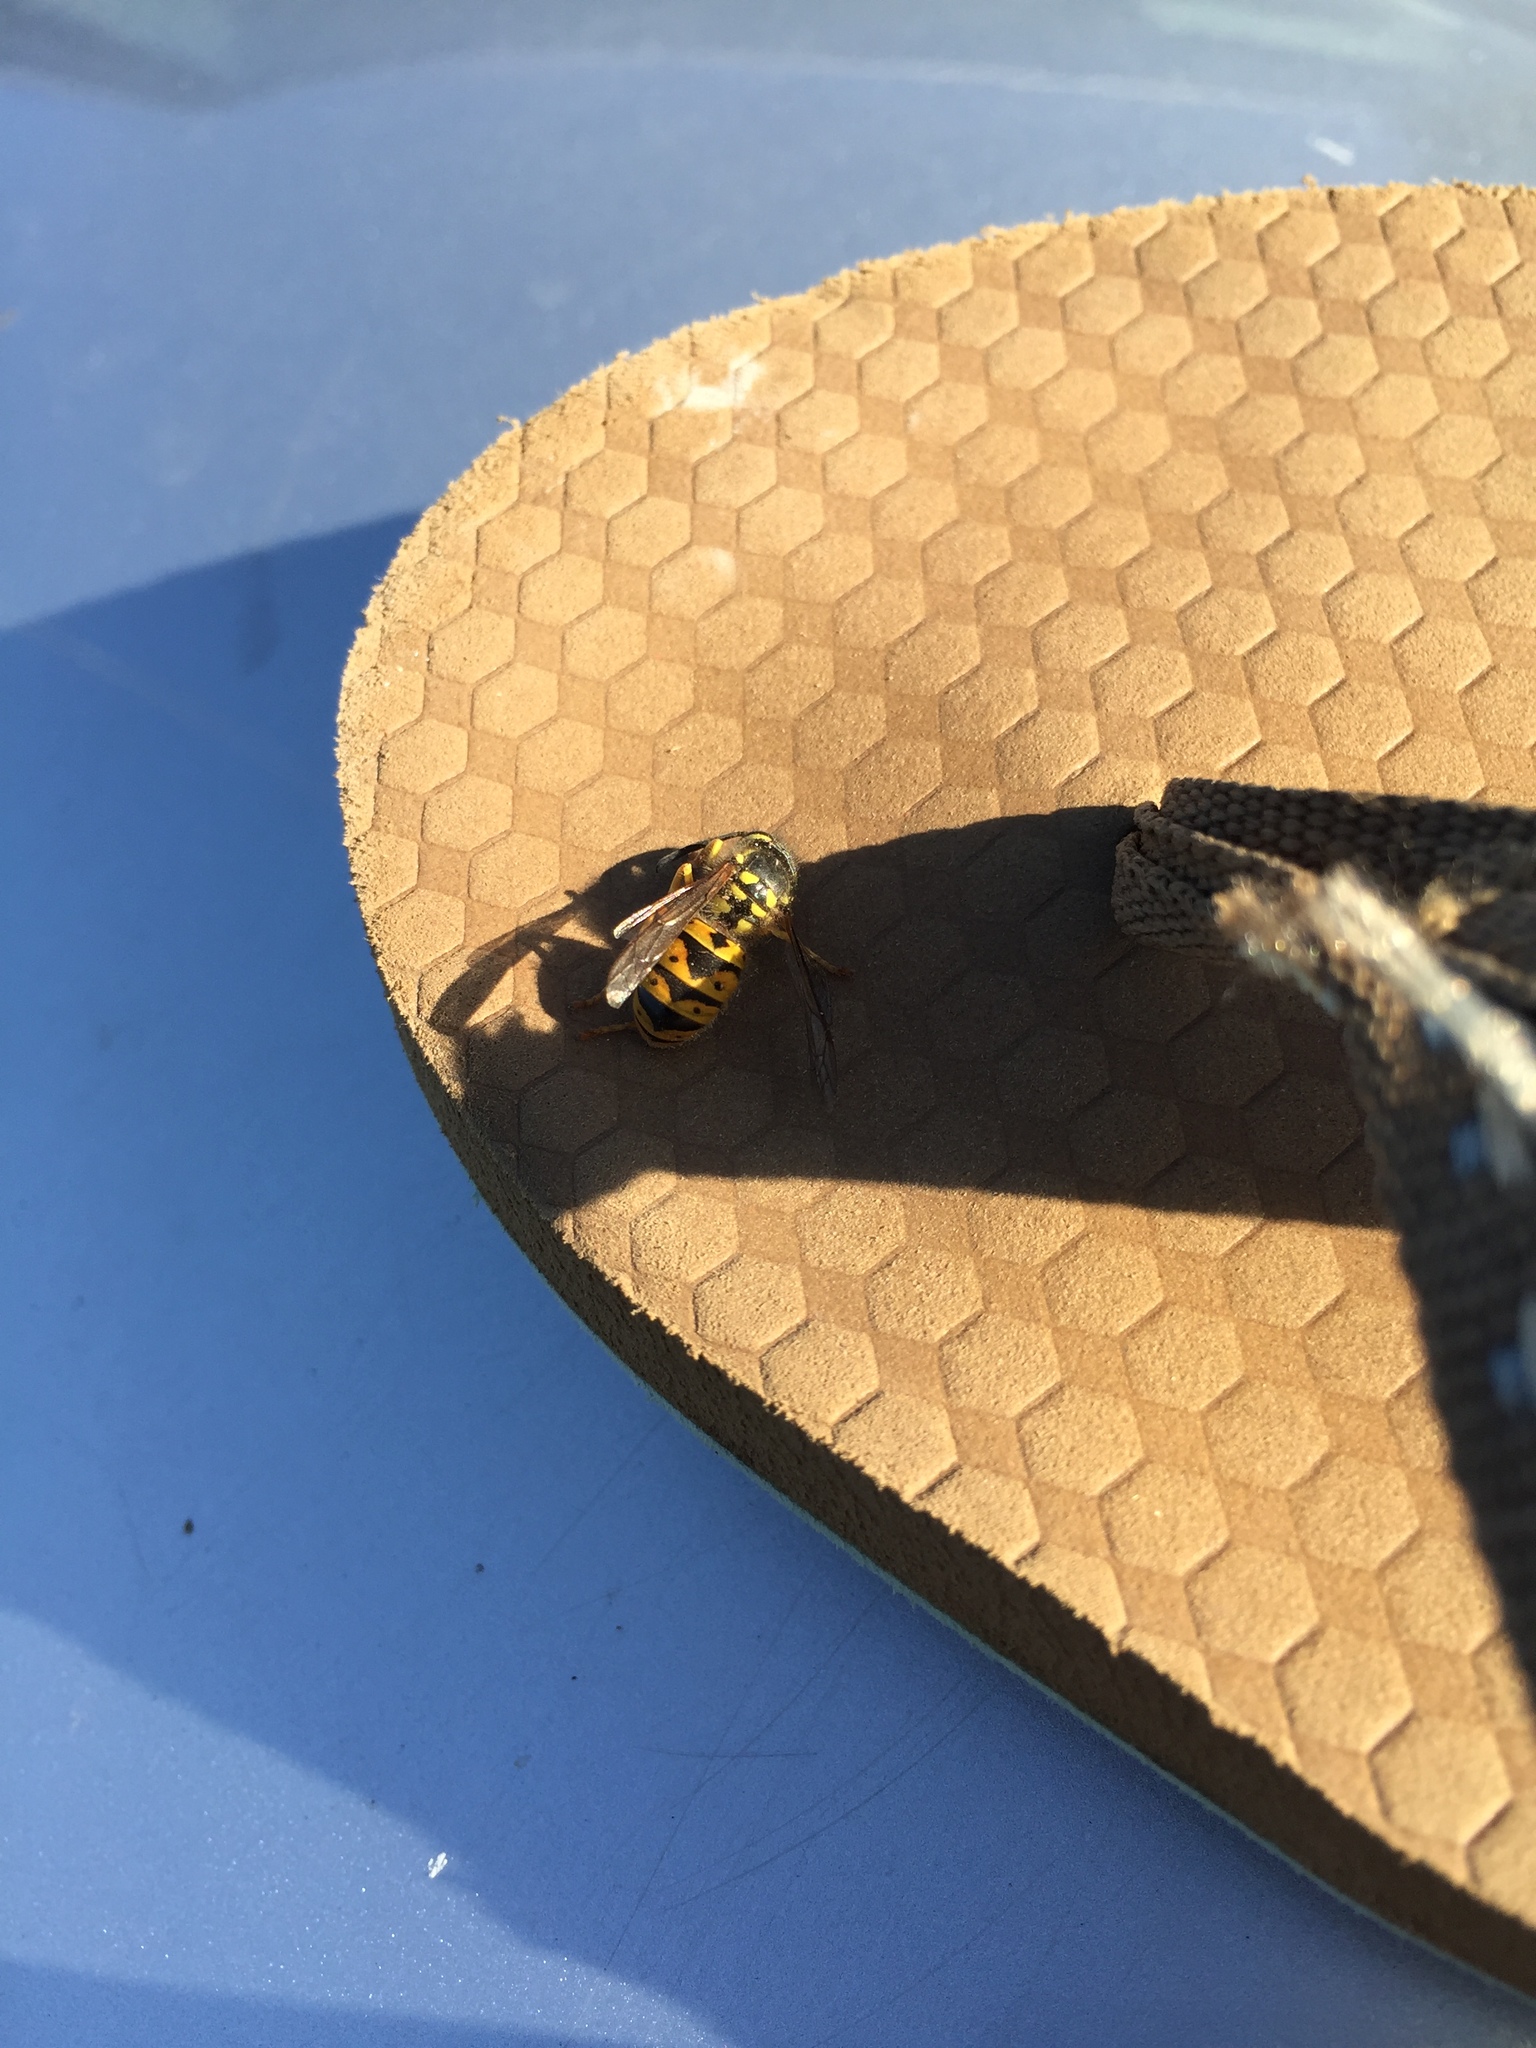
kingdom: Animalia
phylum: Arthropoda
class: Insecta
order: Hymenoptera
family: Vespidae
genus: Vespula
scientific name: Vespula germanica
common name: German wasp
